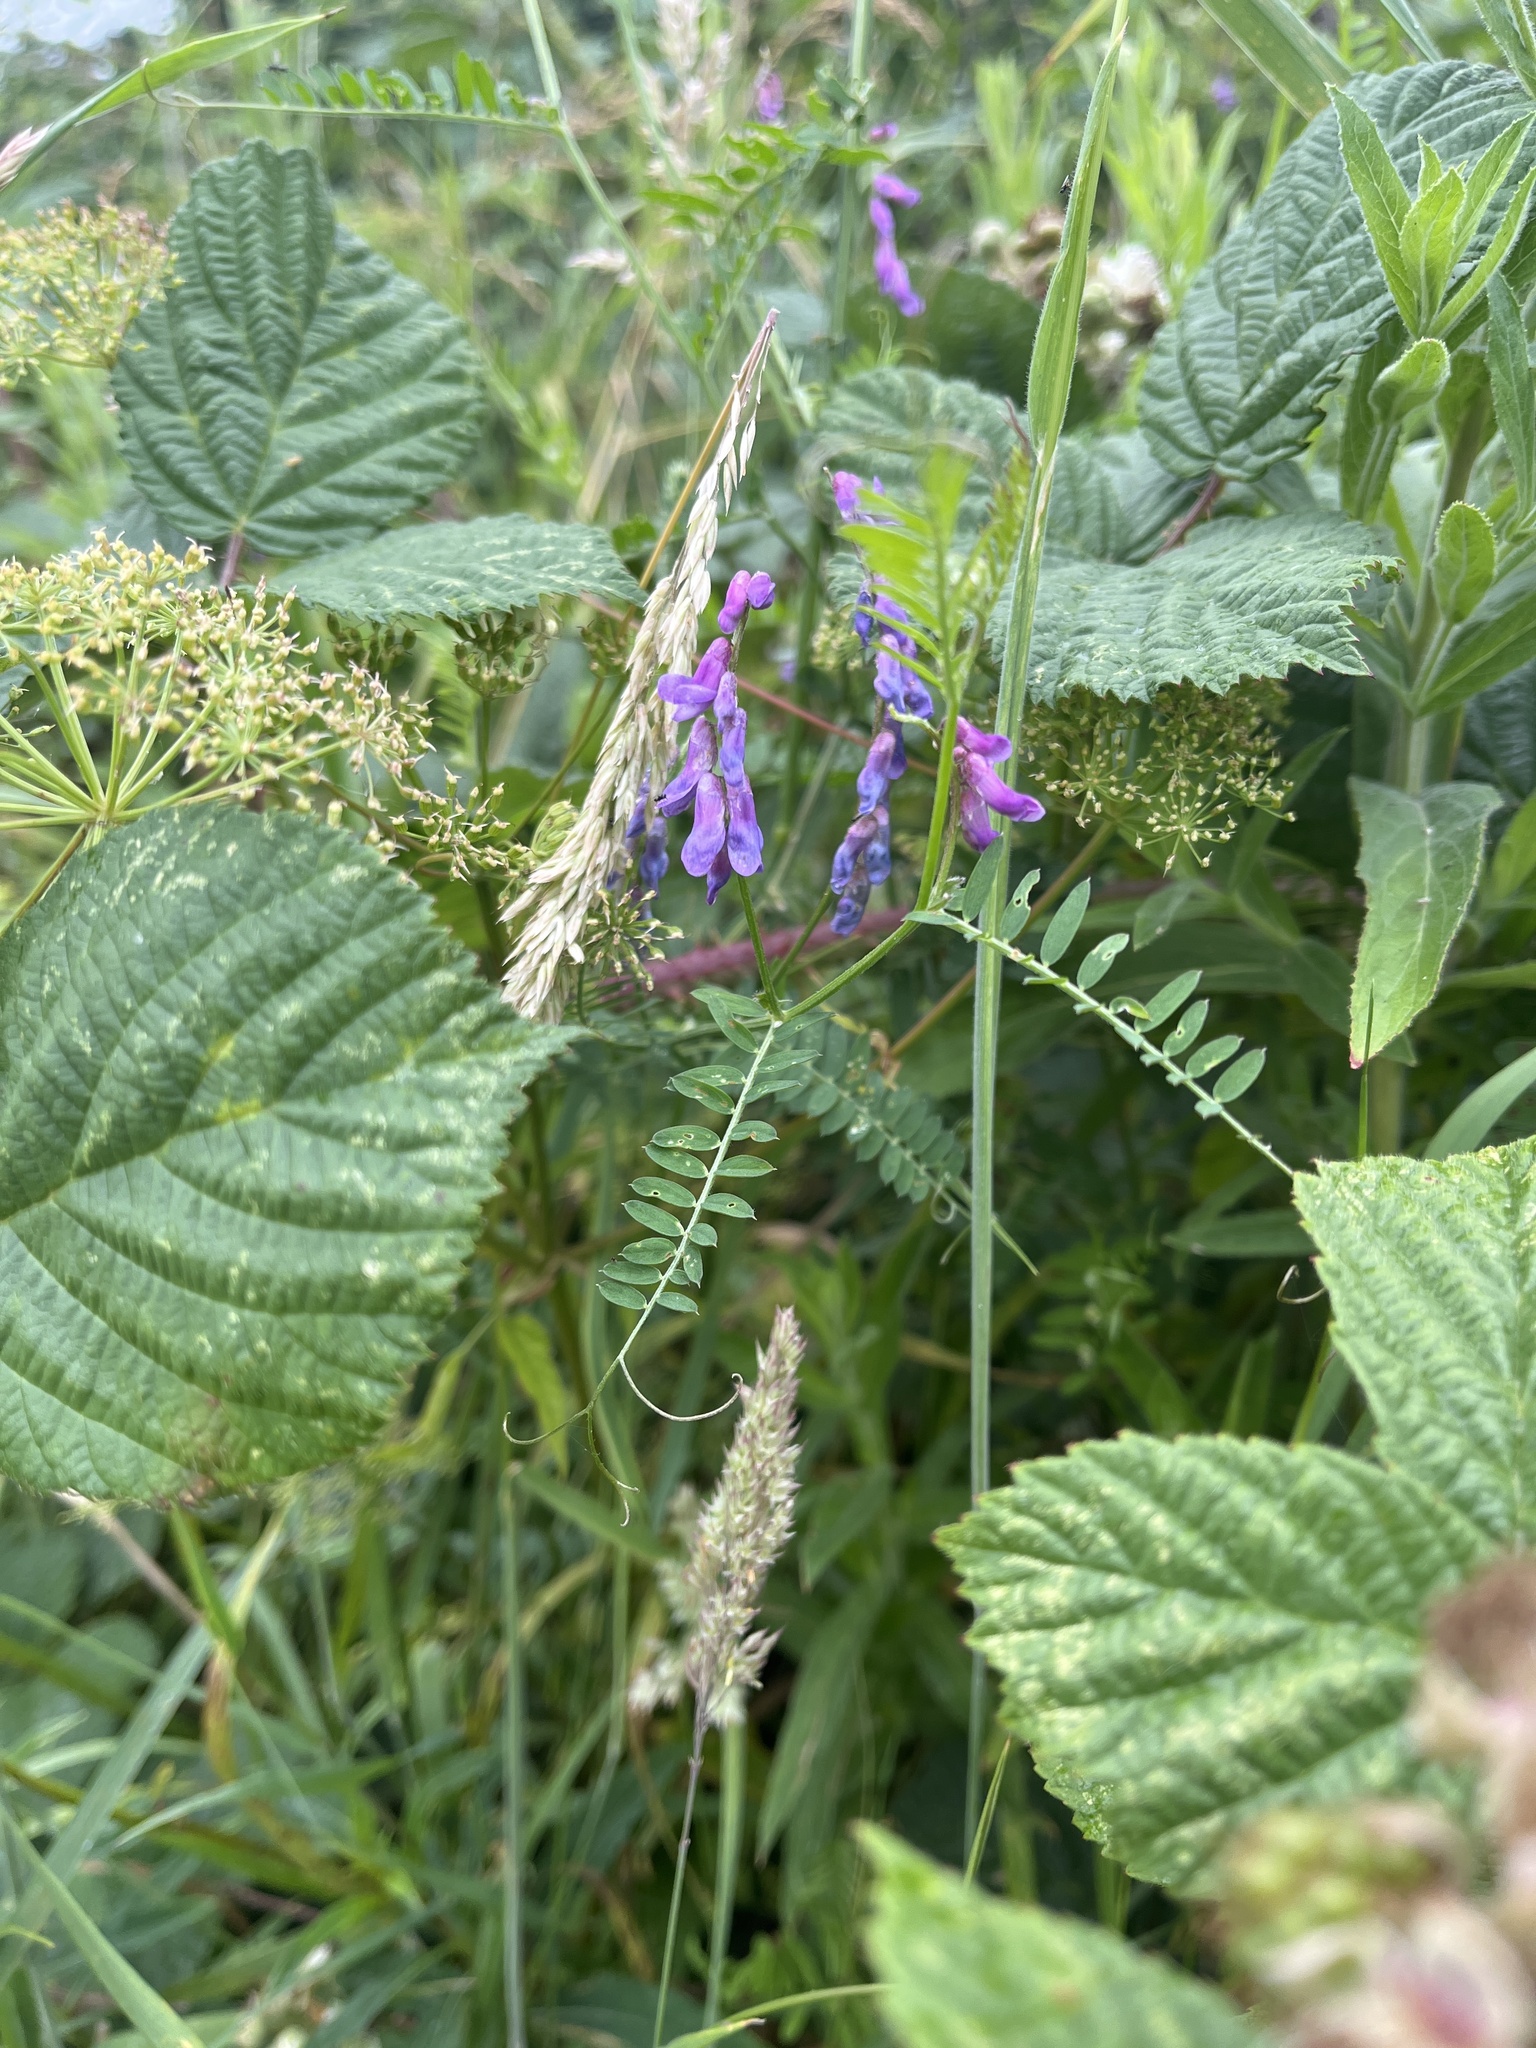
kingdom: Plantae
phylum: Tracheophyta
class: Magnoliopsida
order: Fabales
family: Fabaceae
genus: Vicia
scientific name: Vicia cracca
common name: Bird vetch
